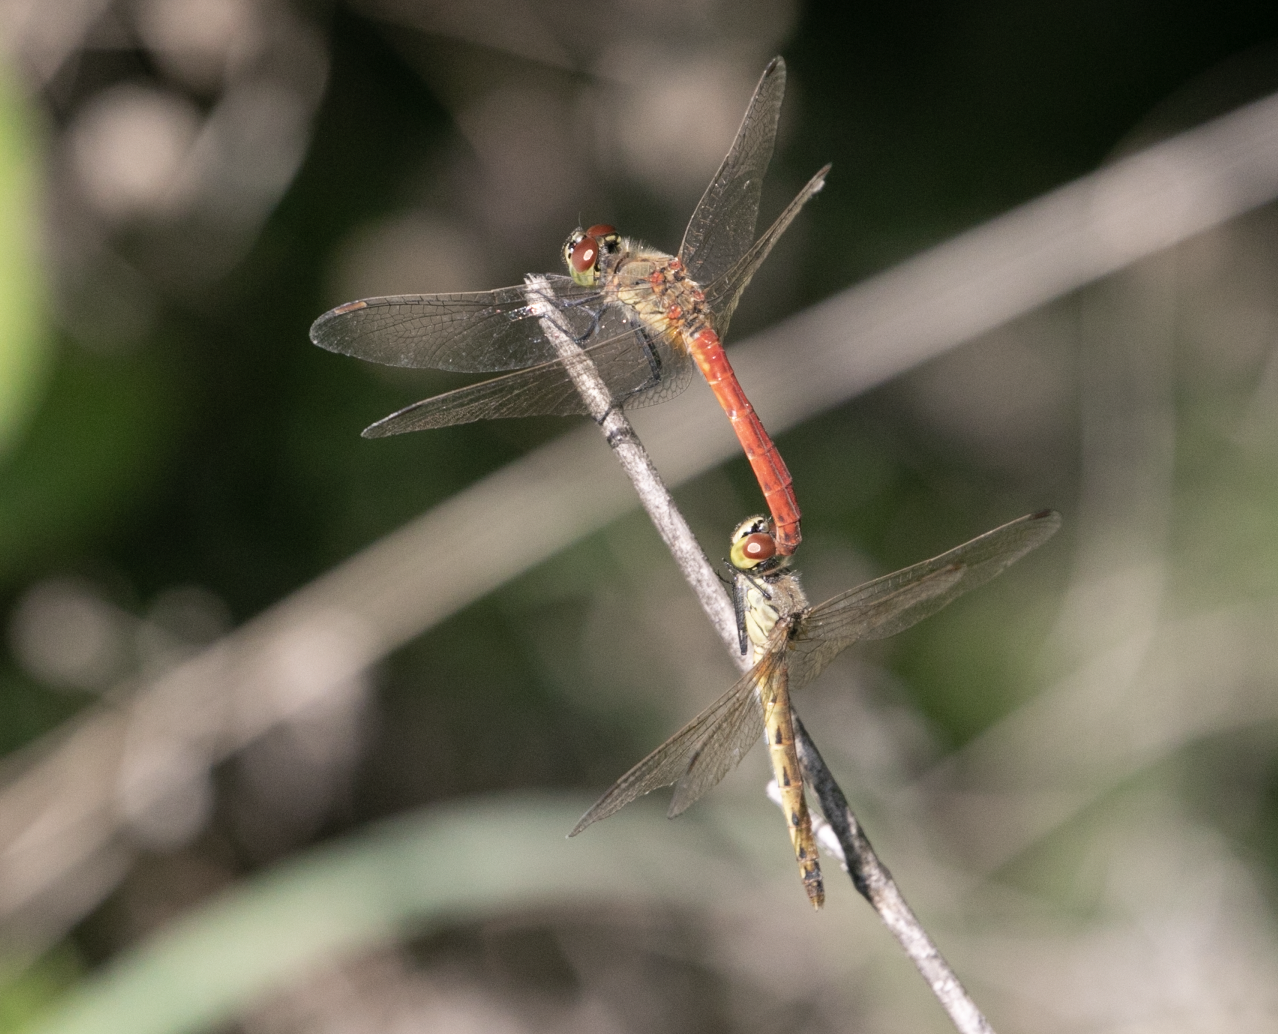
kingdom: Animalia
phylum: Arthropoda
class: Insecta
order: Odonata
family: Libellulidae
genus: Sympetrum
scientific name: Sympetrum depressiusculum
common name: Spotted darter
